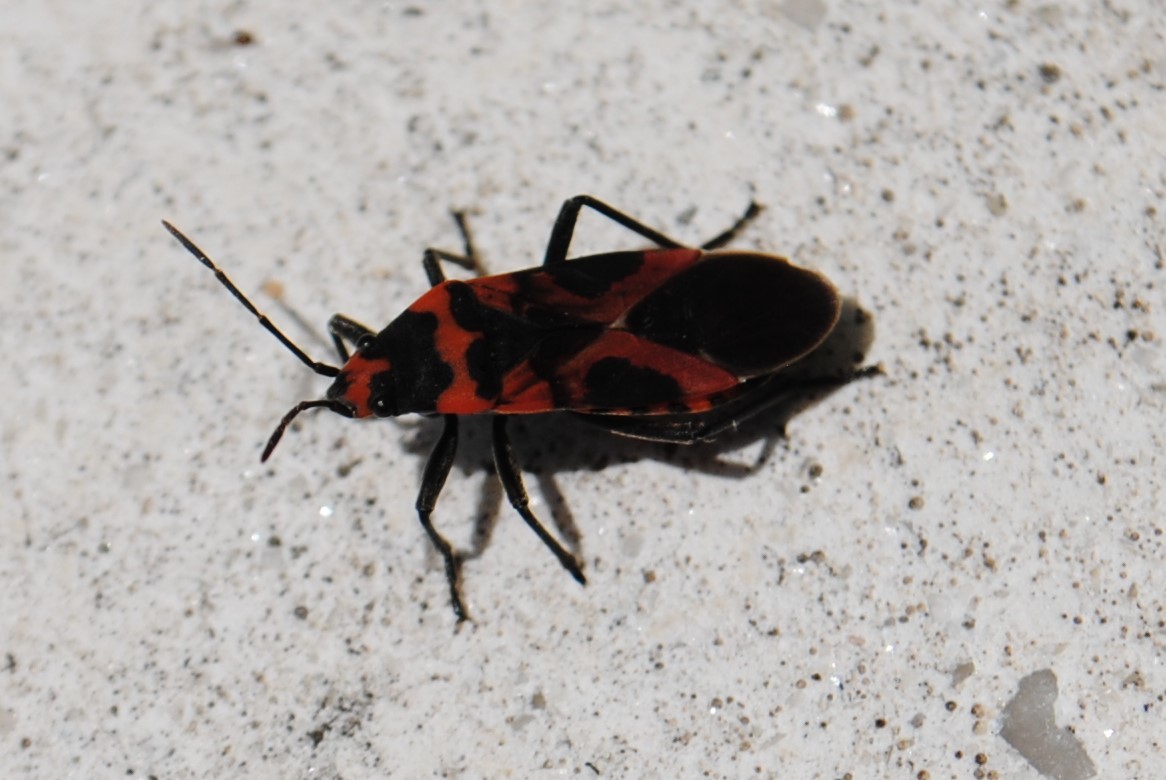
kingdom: Animalia
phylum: Arthropoda
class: Insecta
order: Hemiptera
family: Lygaeidae
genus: Lygaeus
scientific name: Lygaeus turcicus
